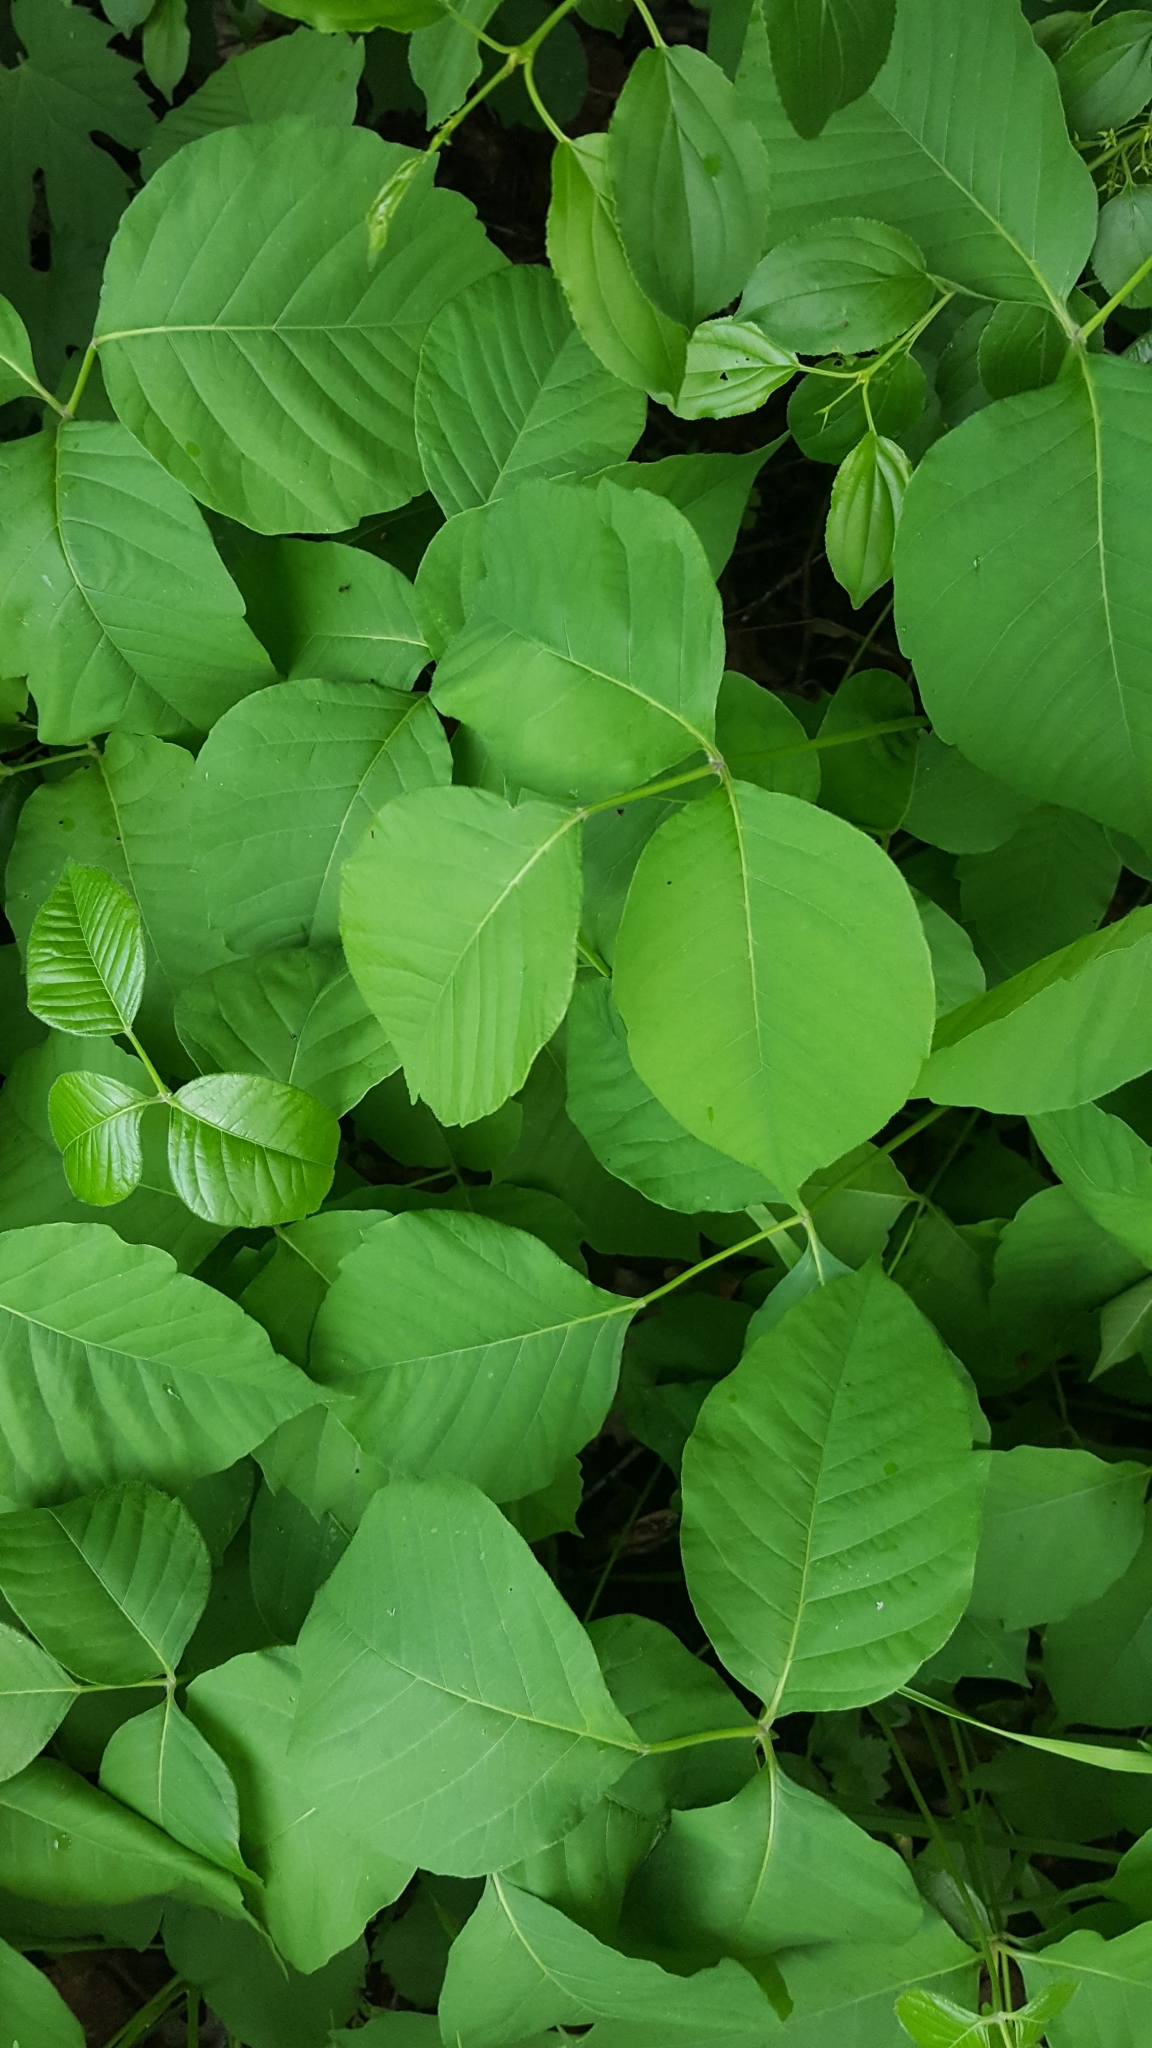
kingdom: Plantae
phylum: Tracheophyta
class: Magnoliopsida
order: Sapindales
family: Anacardiaceae
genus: Toxicodendron
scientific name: Toxicodendron rydbergii
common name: Rydberg's poison-ivy
